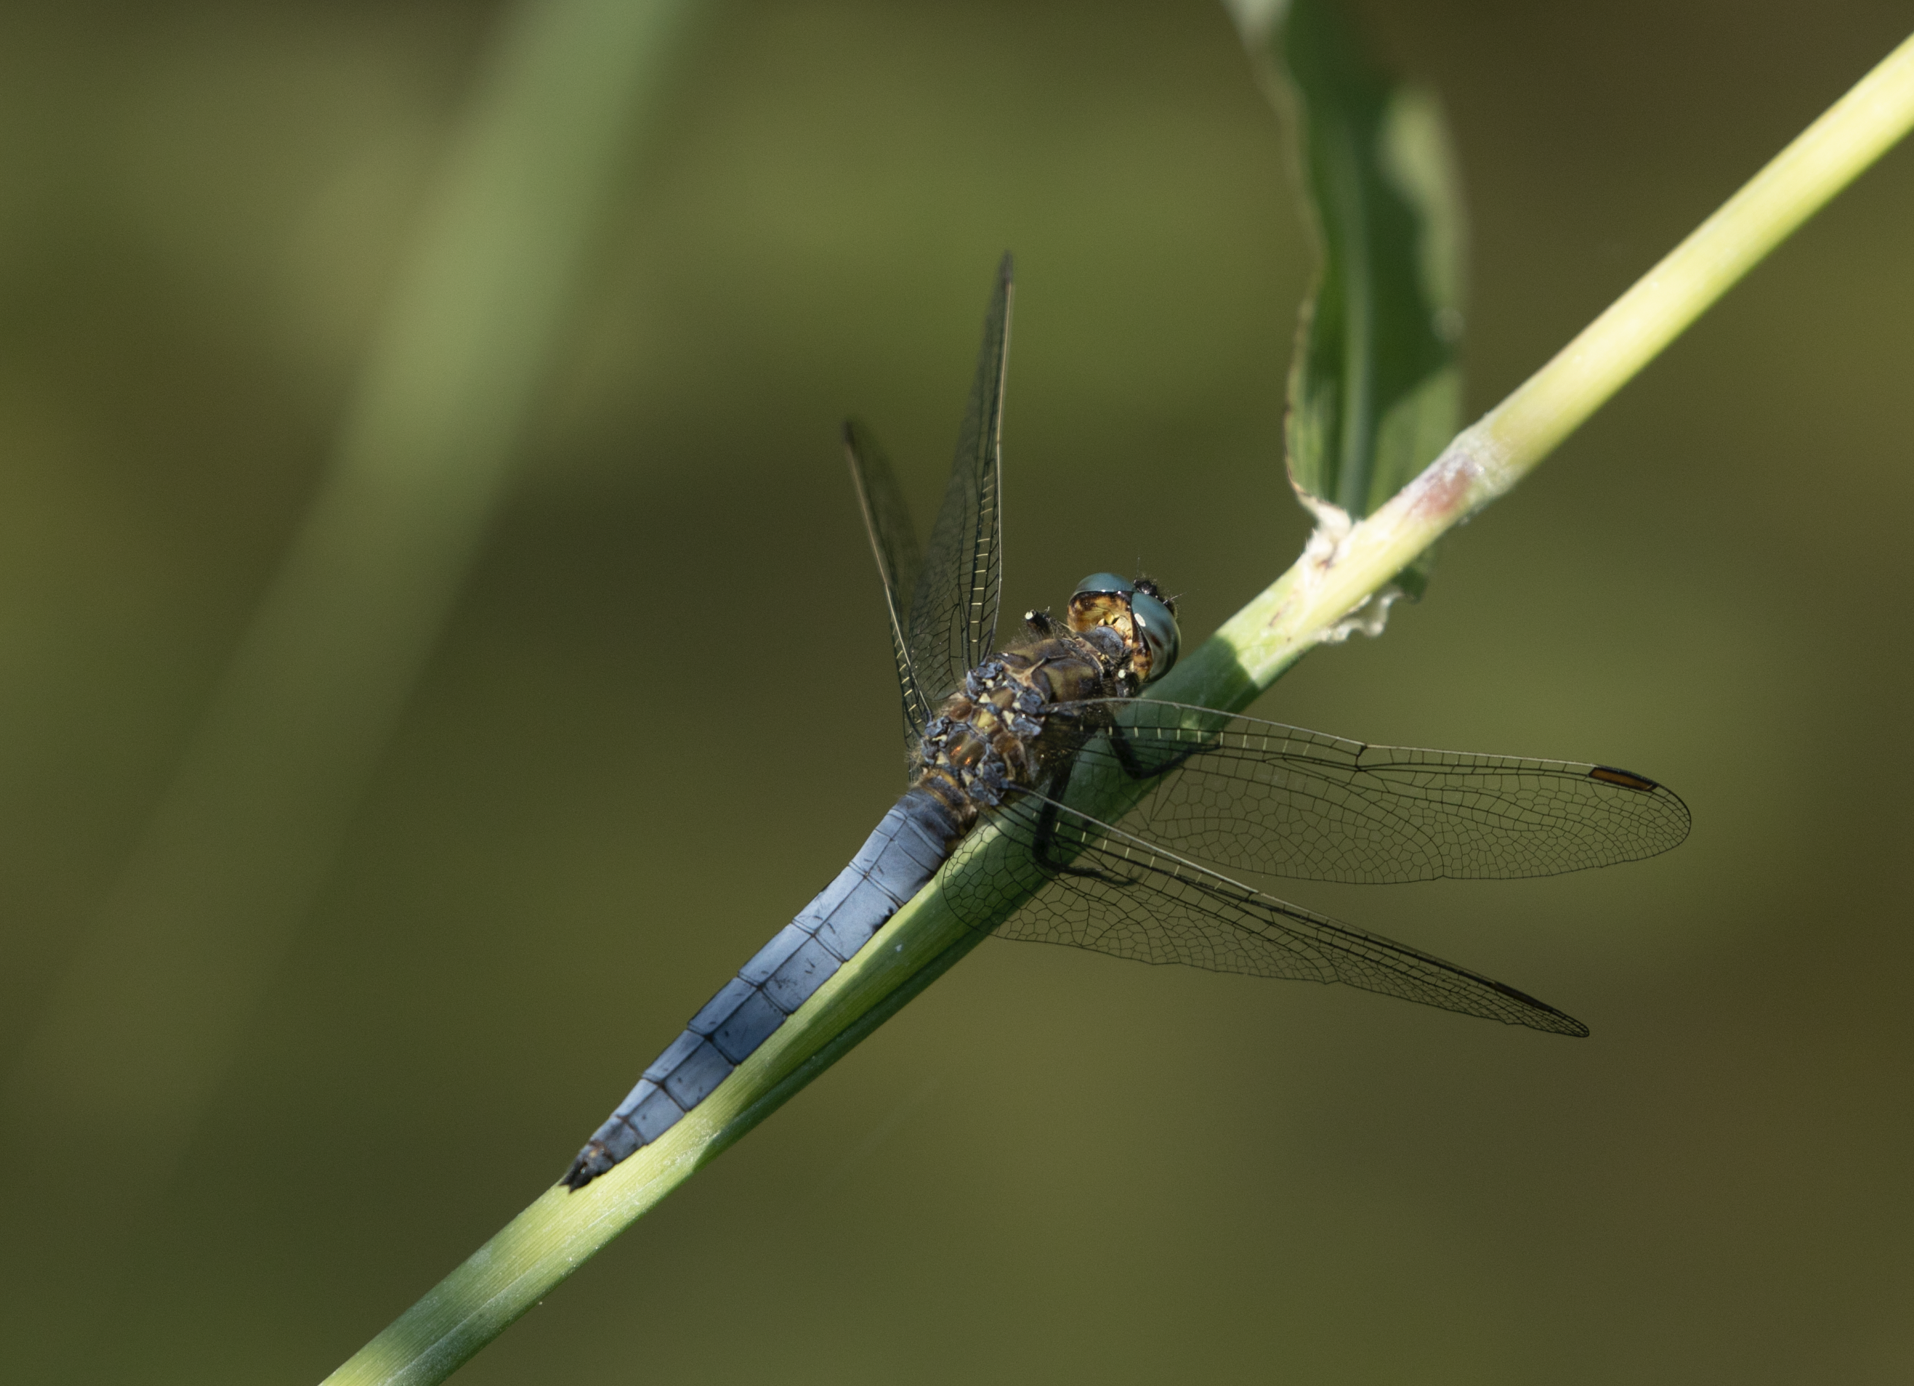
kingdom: Animalia
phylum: Arthropoda
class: Insecta
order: Odonata
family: Libellulidae
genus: Orthetrum
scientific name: Orthetrum coerulescens
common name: Keeled skimmer
